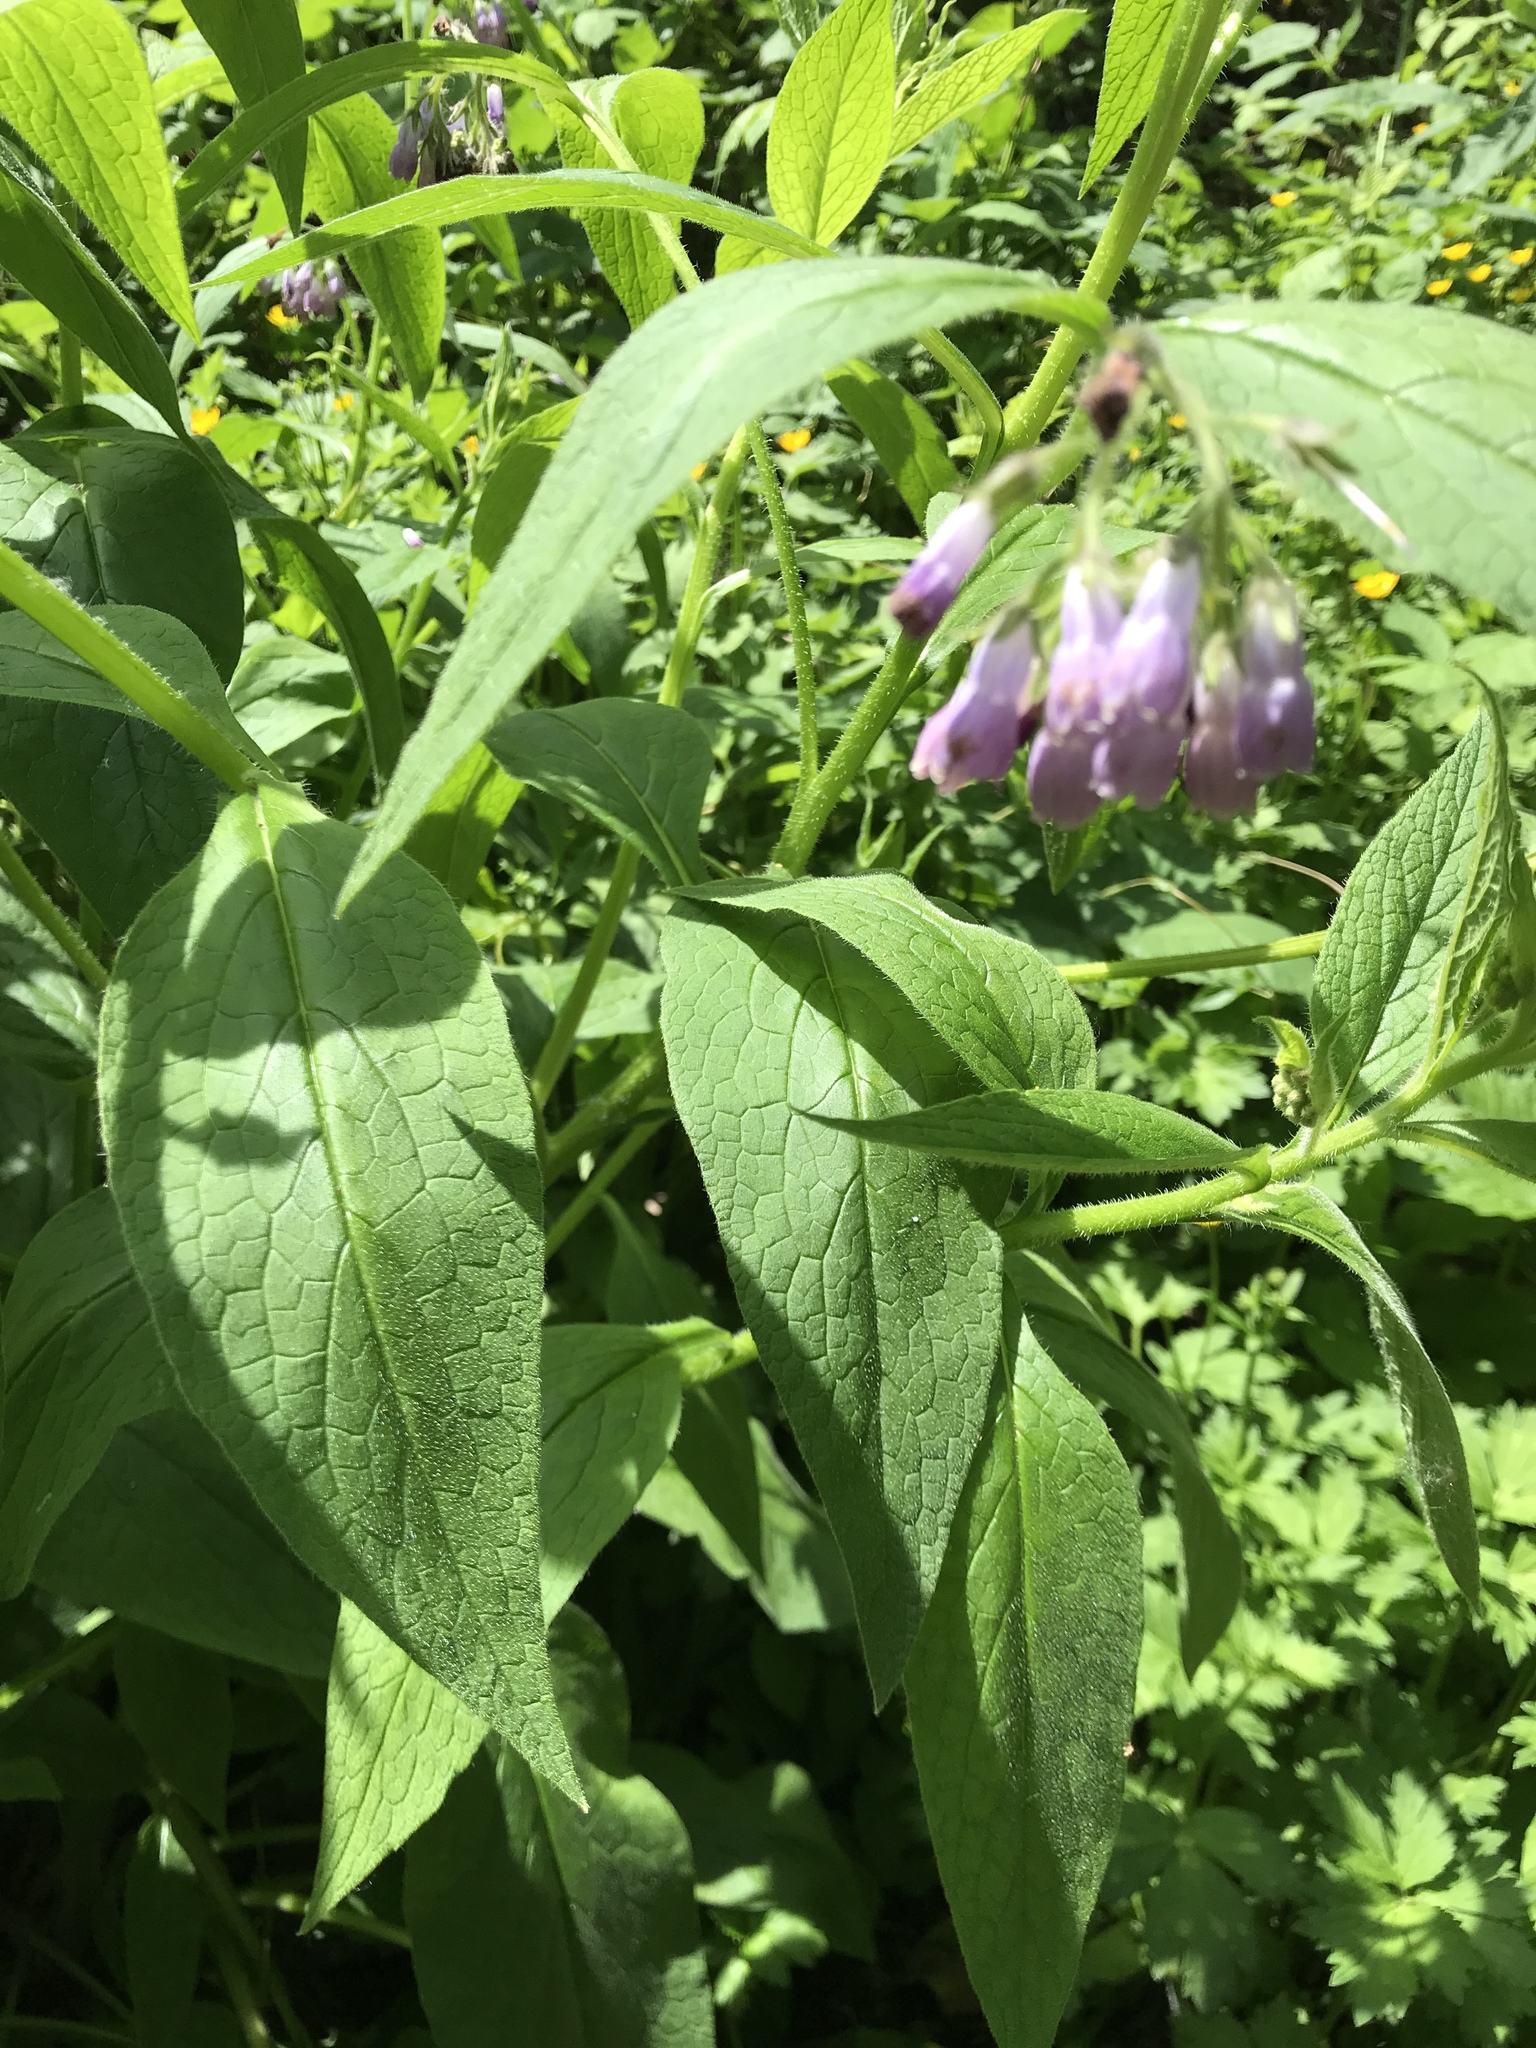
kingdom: Plantae
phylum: Tracheophyta
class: Magnoliopsida
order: Boraginales
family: Boraginaceae
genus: Symphytum
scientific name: Symphytum officinale
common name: Common comfrey
